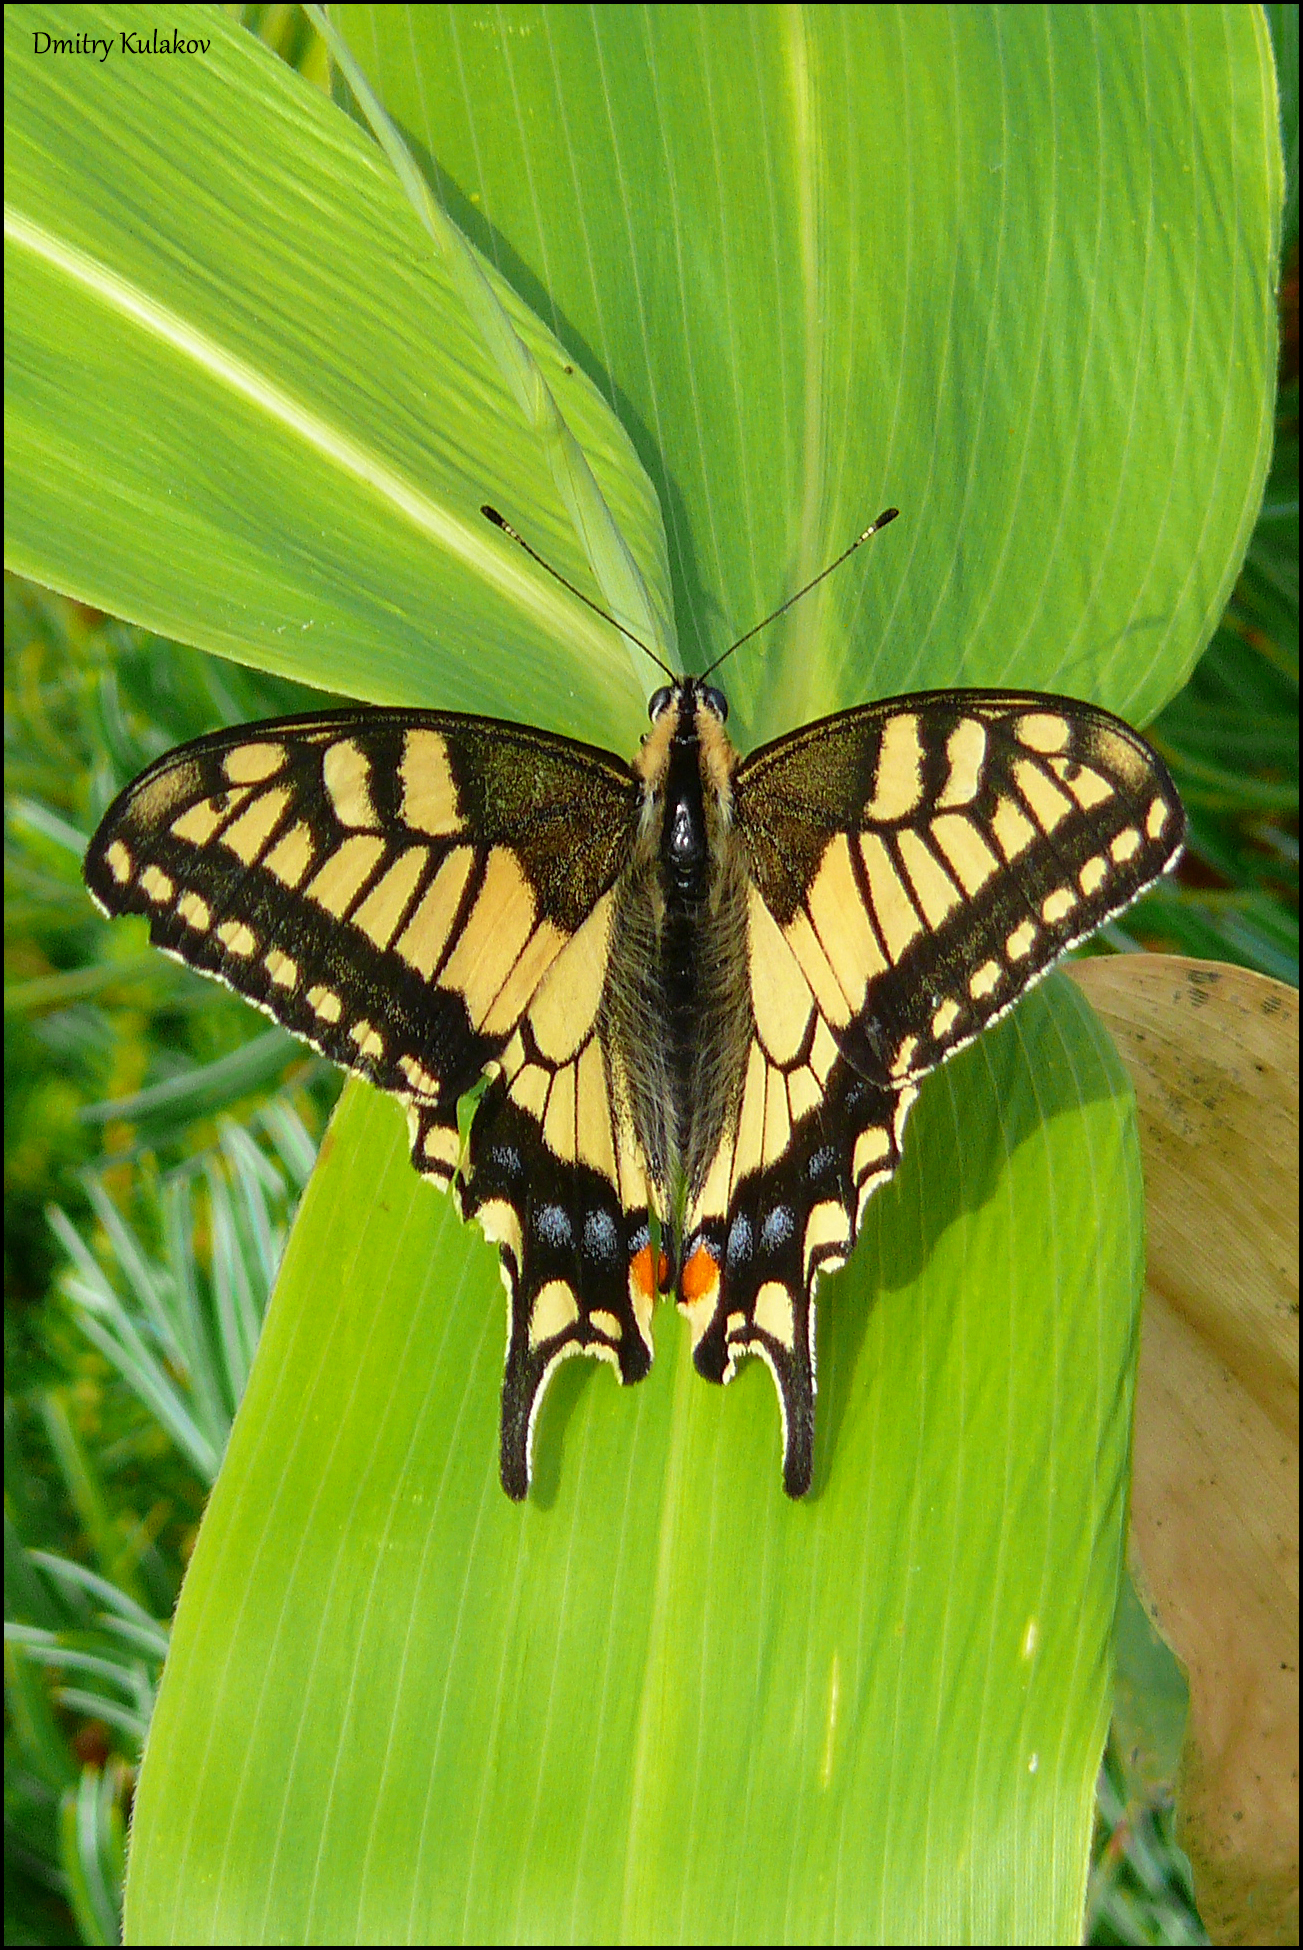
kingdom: Animalia
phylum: Arthropoda
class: Insecta
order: Lepidoptera
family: Papilionidae
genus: Papilio
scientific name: Papilio machaon
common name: Swallowtail
